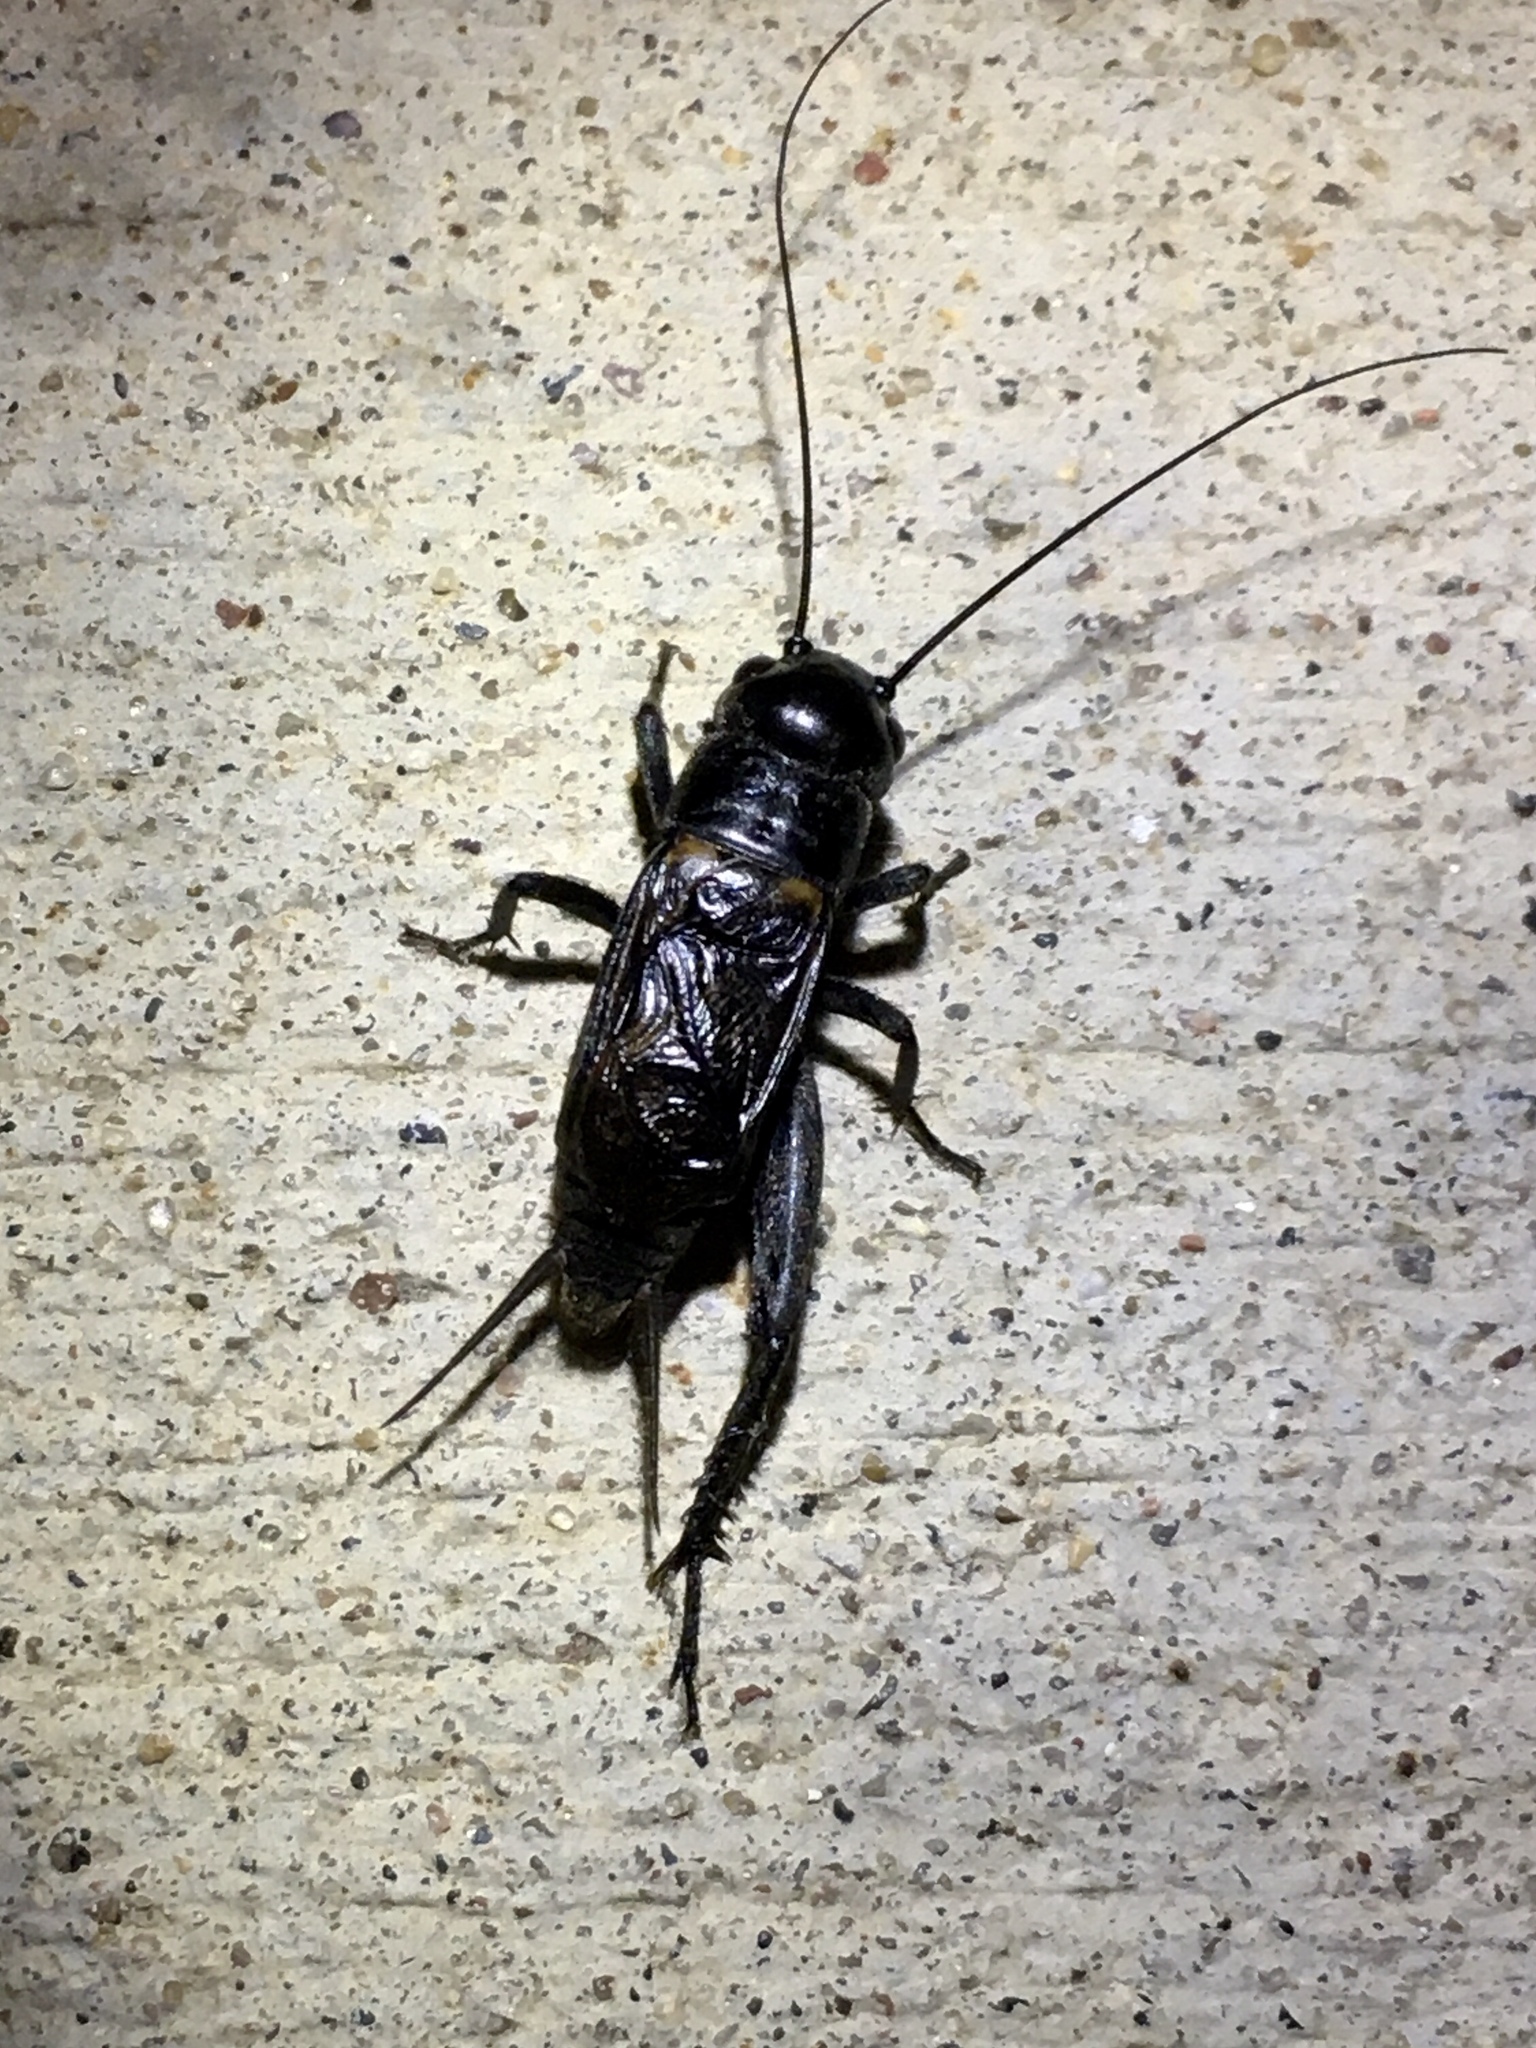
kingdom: Animalia
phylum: Arthropoda
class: Insecta
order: Orthoptera
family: Gryllidae
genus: Gryllus
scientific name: Gryllus veletis
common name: Spring field cricket
